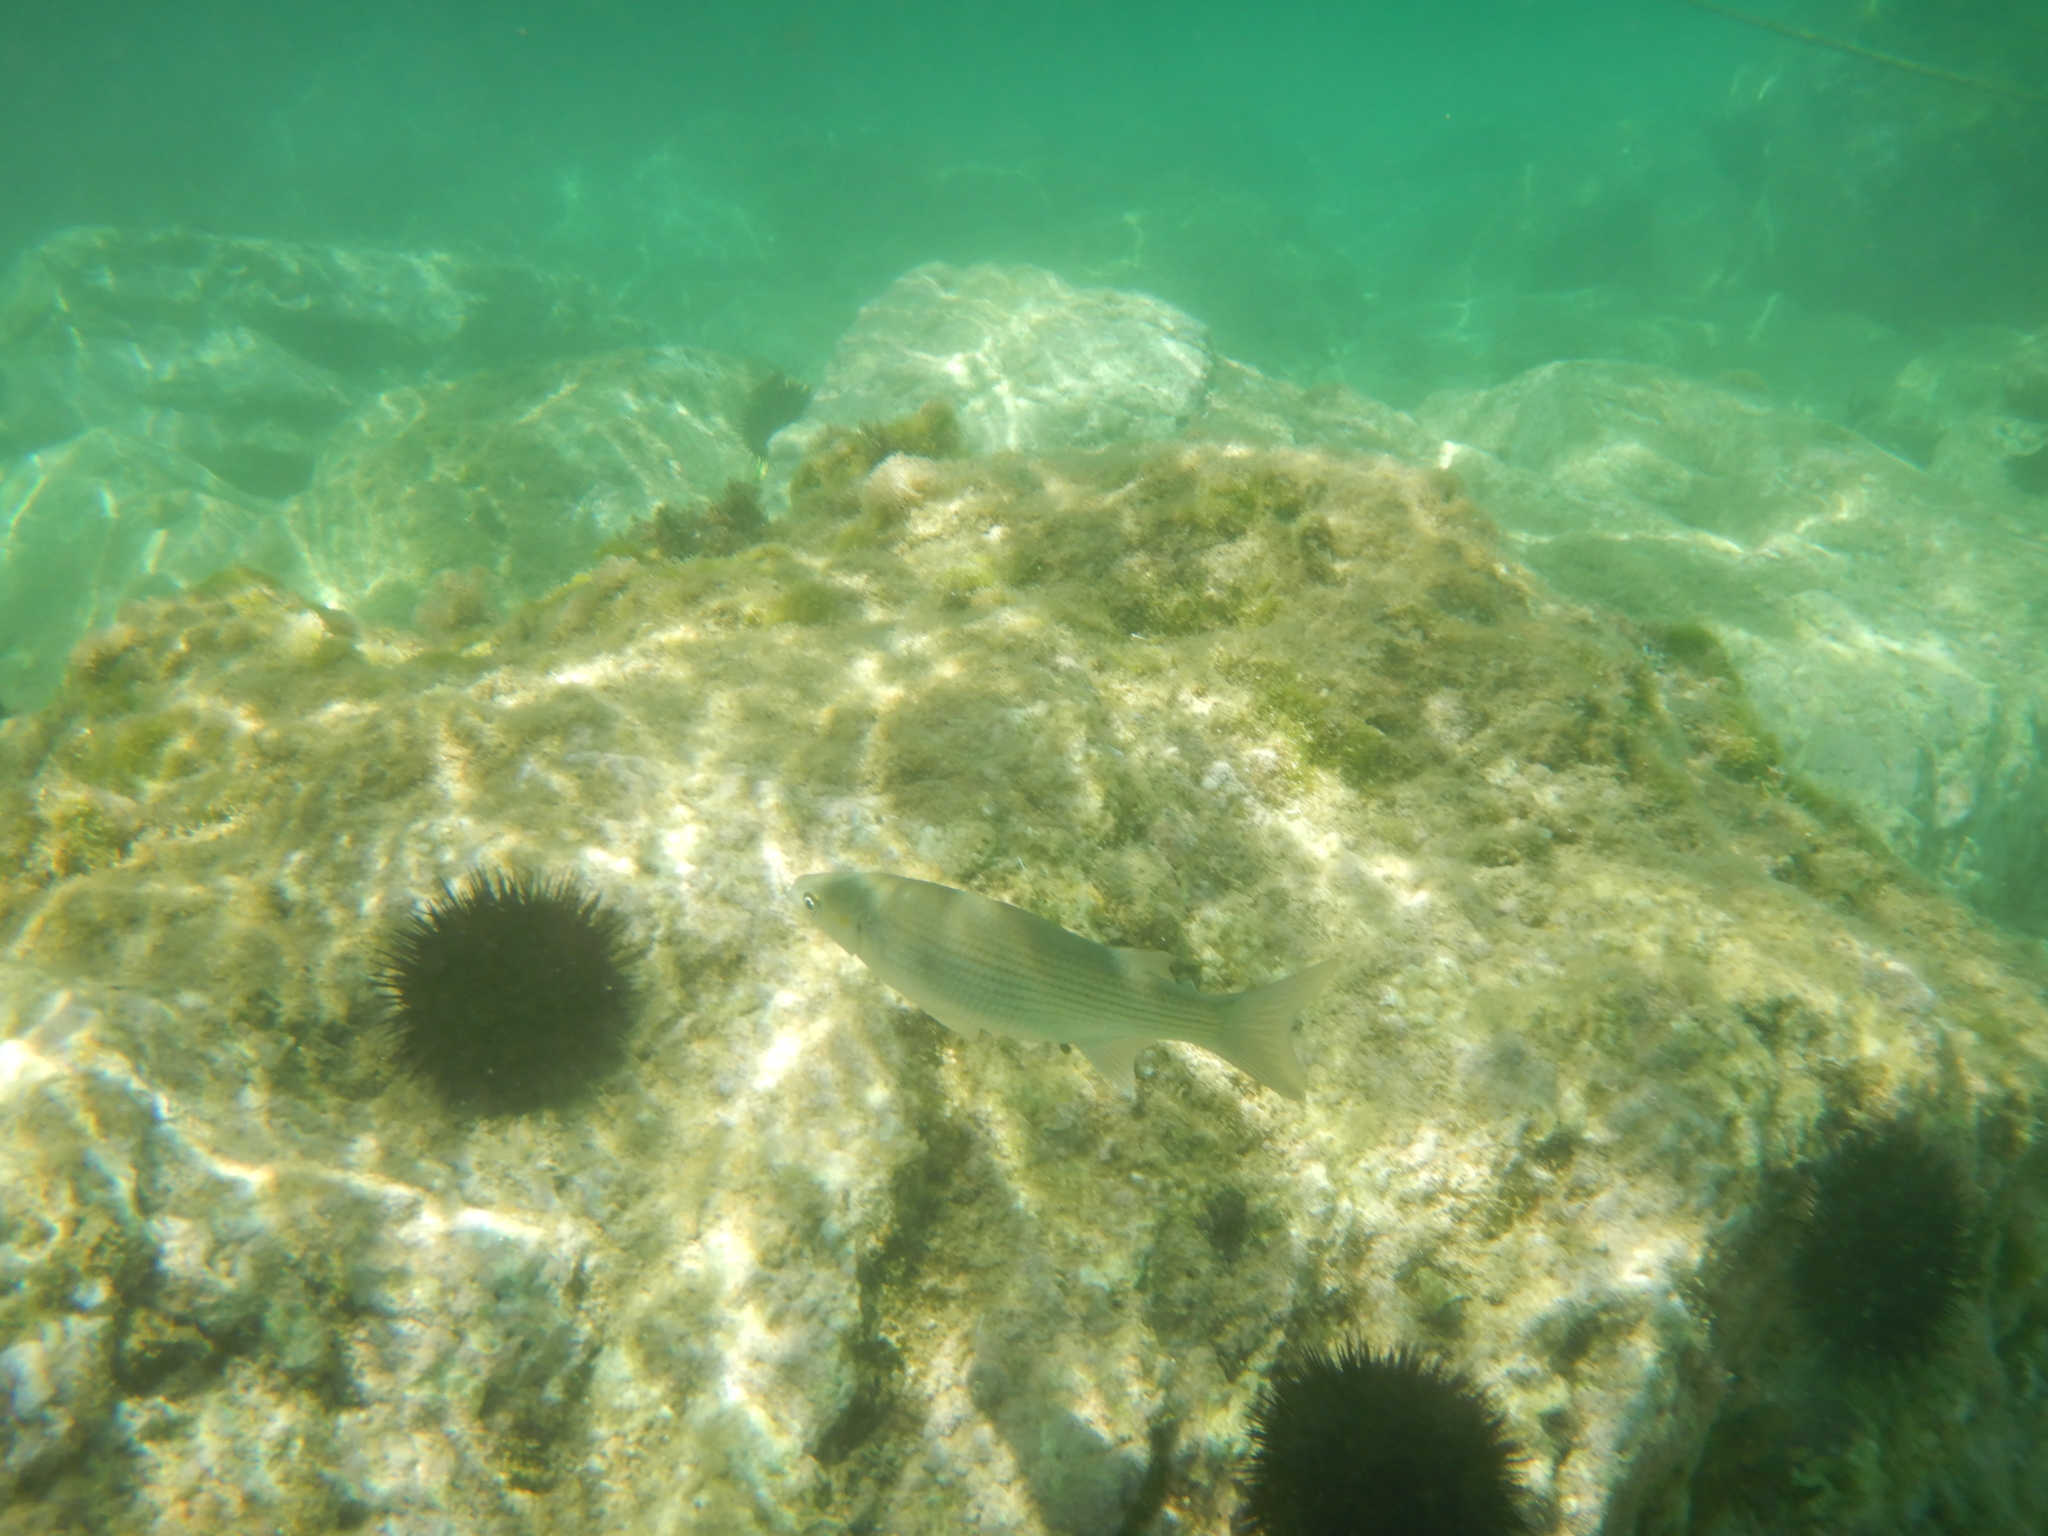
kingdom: Animalia
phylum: Chordata
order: Mugiliformes
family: Mugilidae
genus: Chelon
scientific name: Chelon
